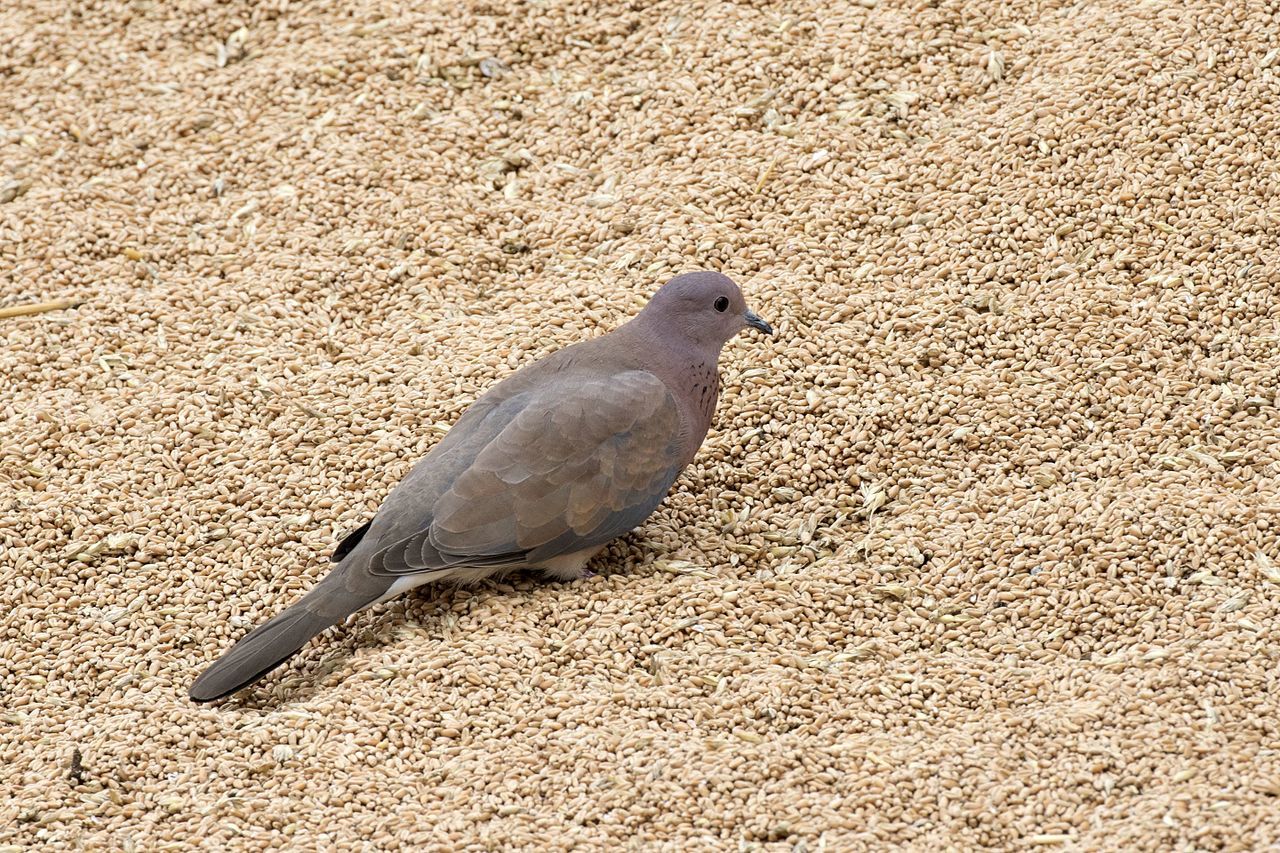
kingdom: Animalia
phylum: Chordata
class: Aves
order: Columbiformes
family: Columbidae
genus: Spilopelia
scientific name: Spilopelia senegalensis
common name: Laughing dove
